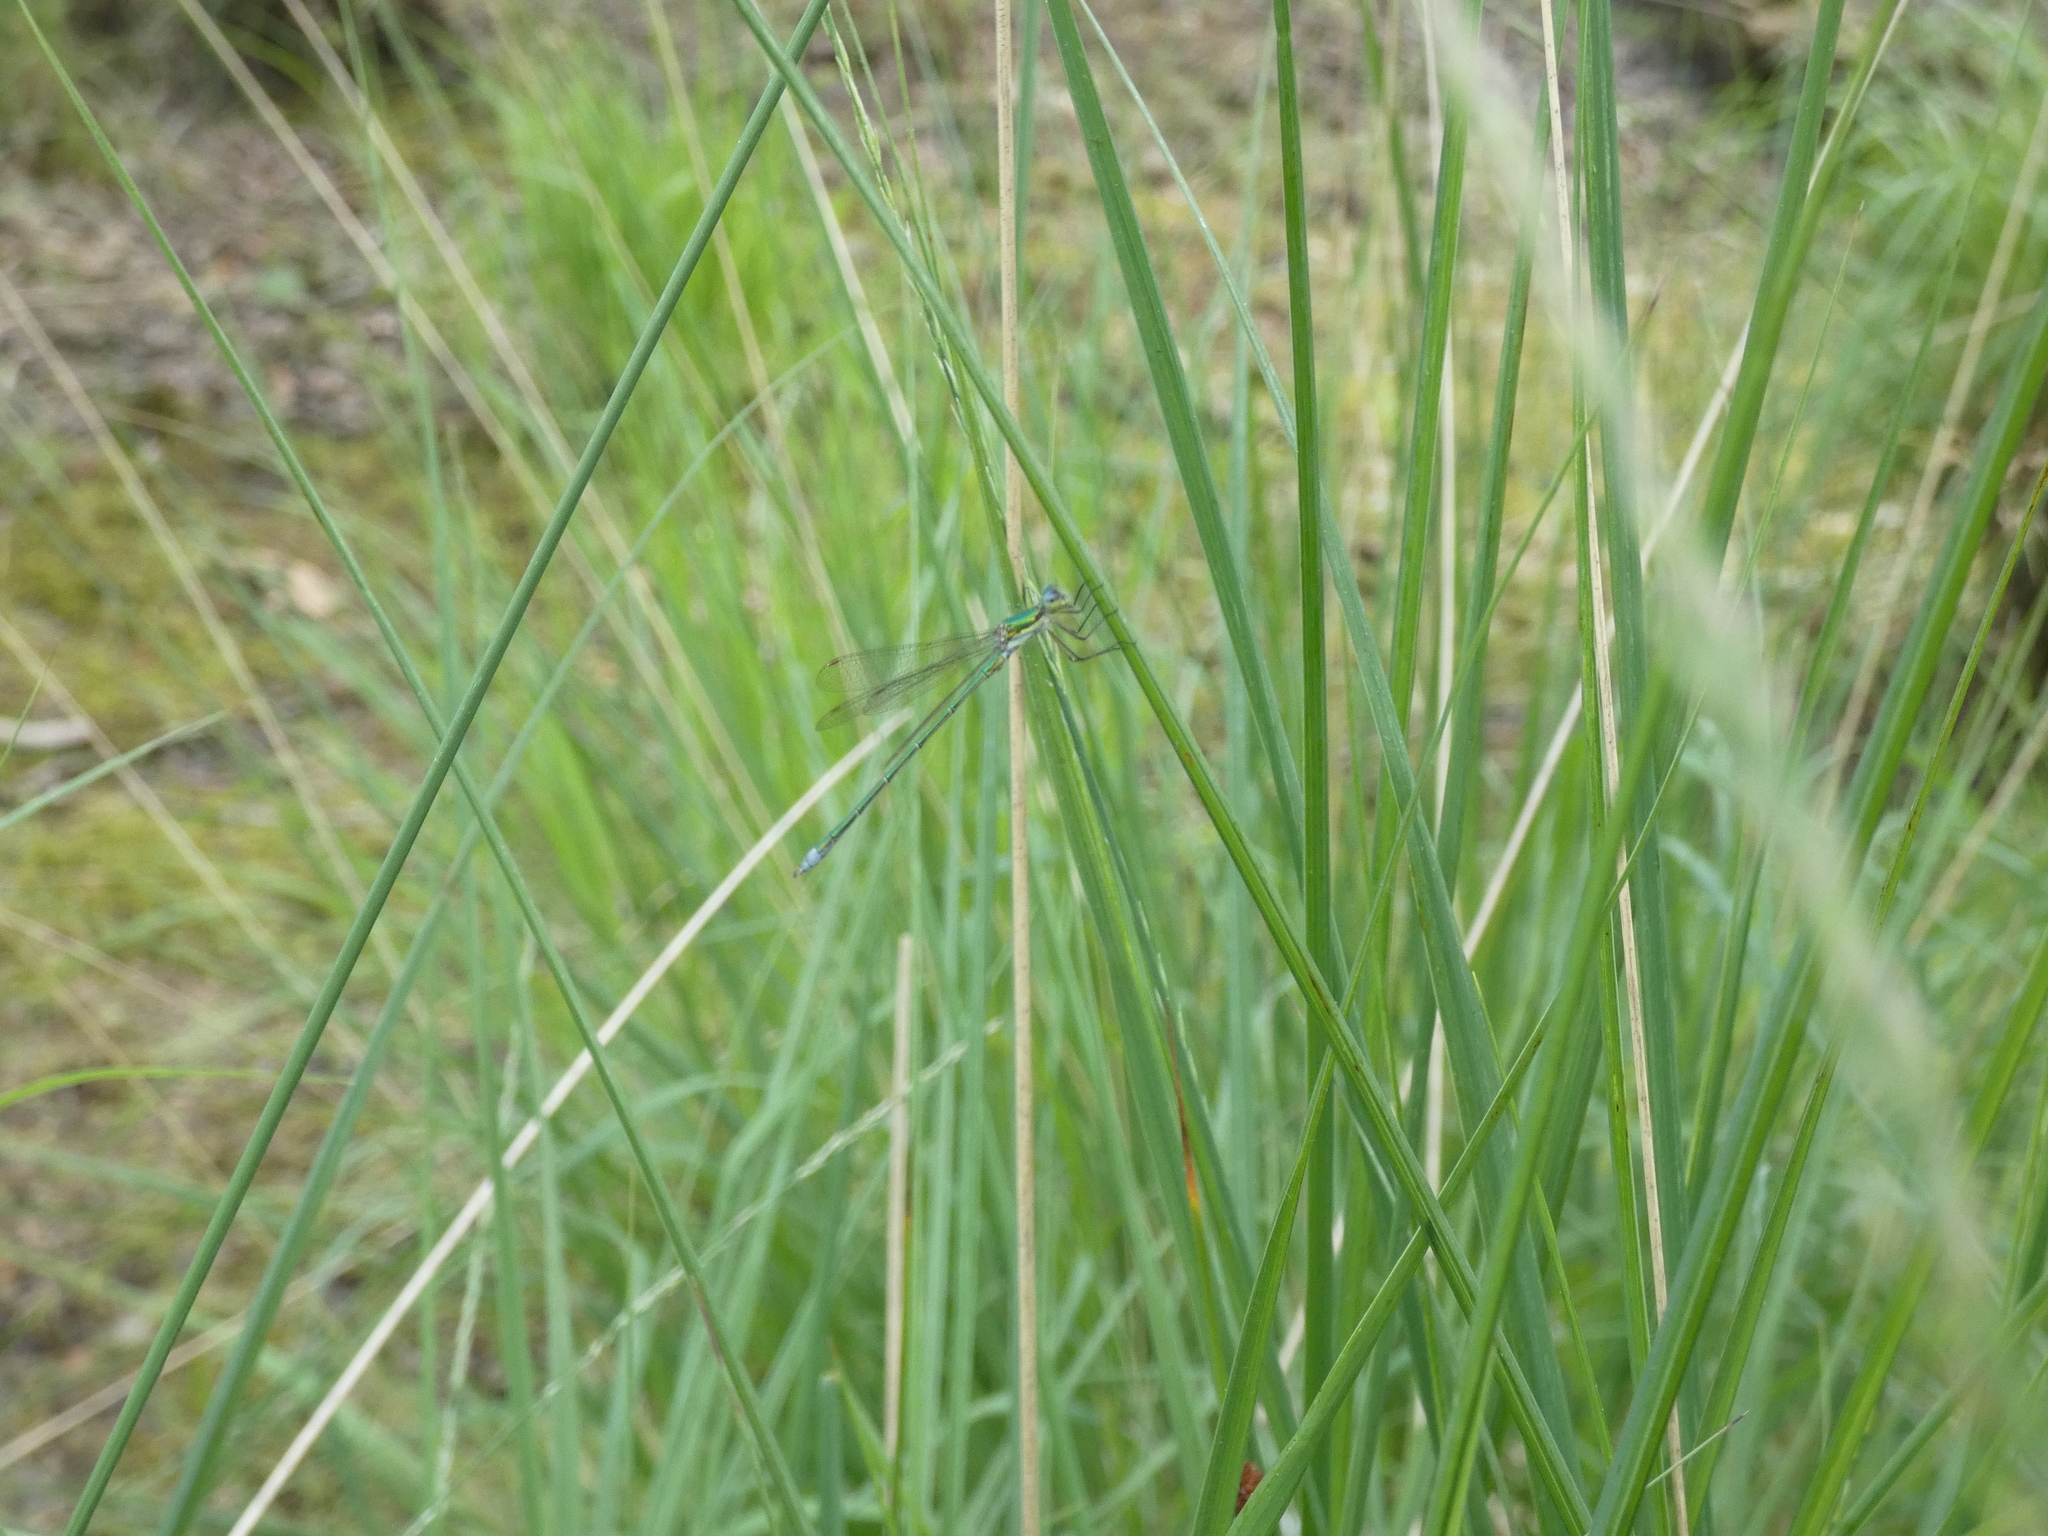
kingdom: Animalia
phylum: Arthropoda
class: Insecta
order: Odonata
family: Lestidae
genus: Lestes
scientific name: Lestes virens
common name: Small emerald spreadwing
